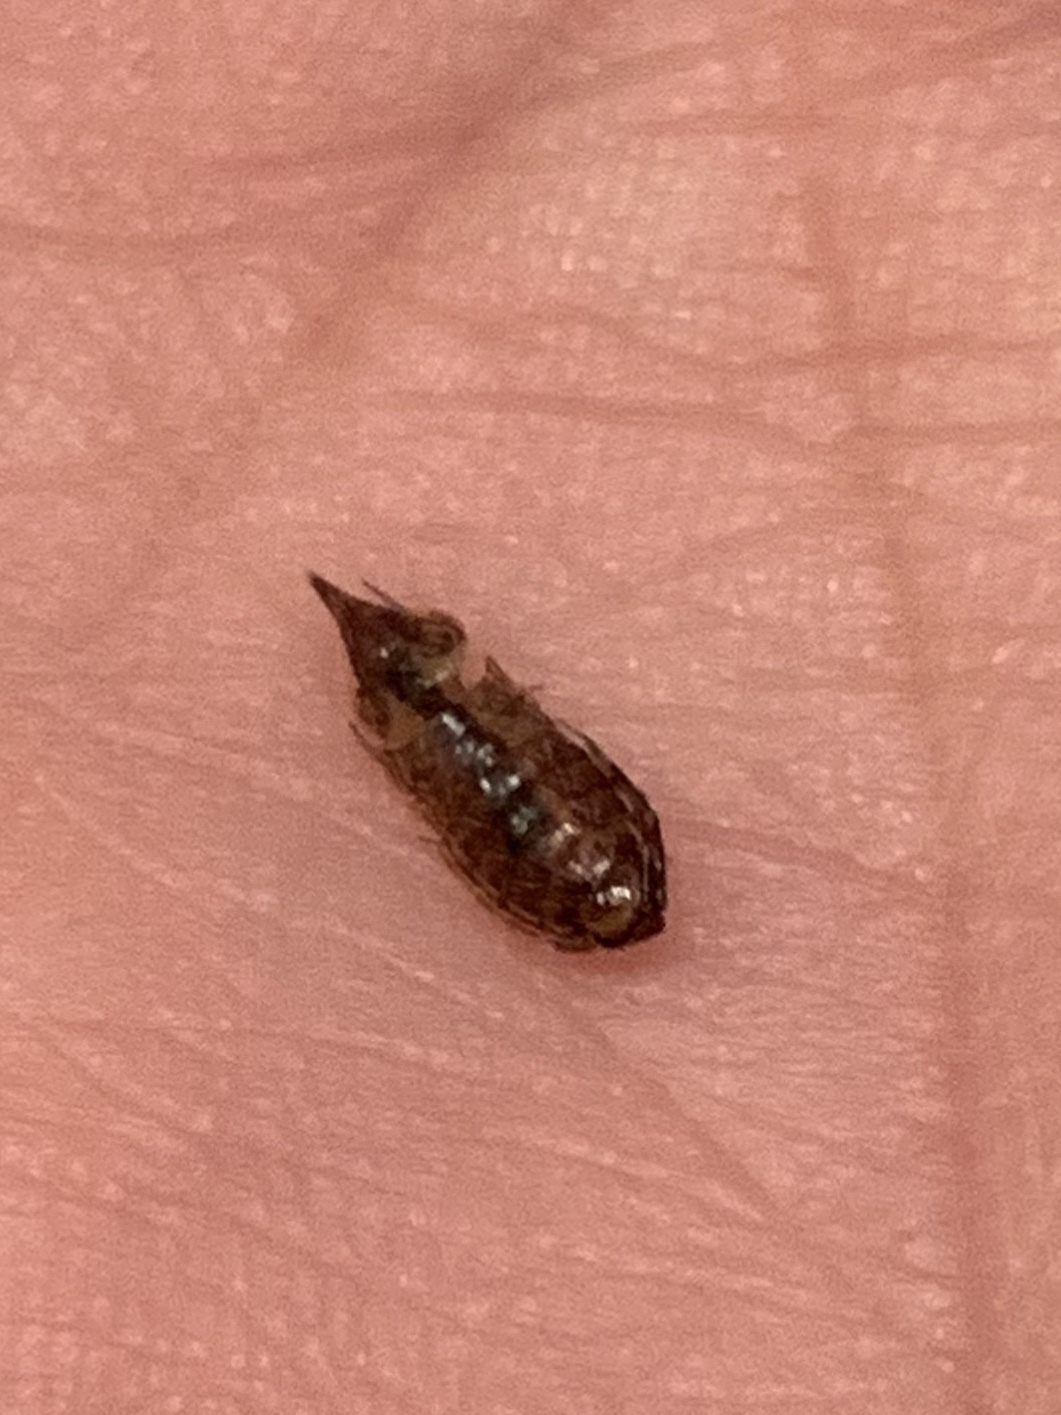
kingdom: Animalia
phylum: Arthropoda
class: Malacostraca
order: Isopoda
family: Philosciidae
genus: Atlantoscia
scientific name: Atlantoscia floridana
